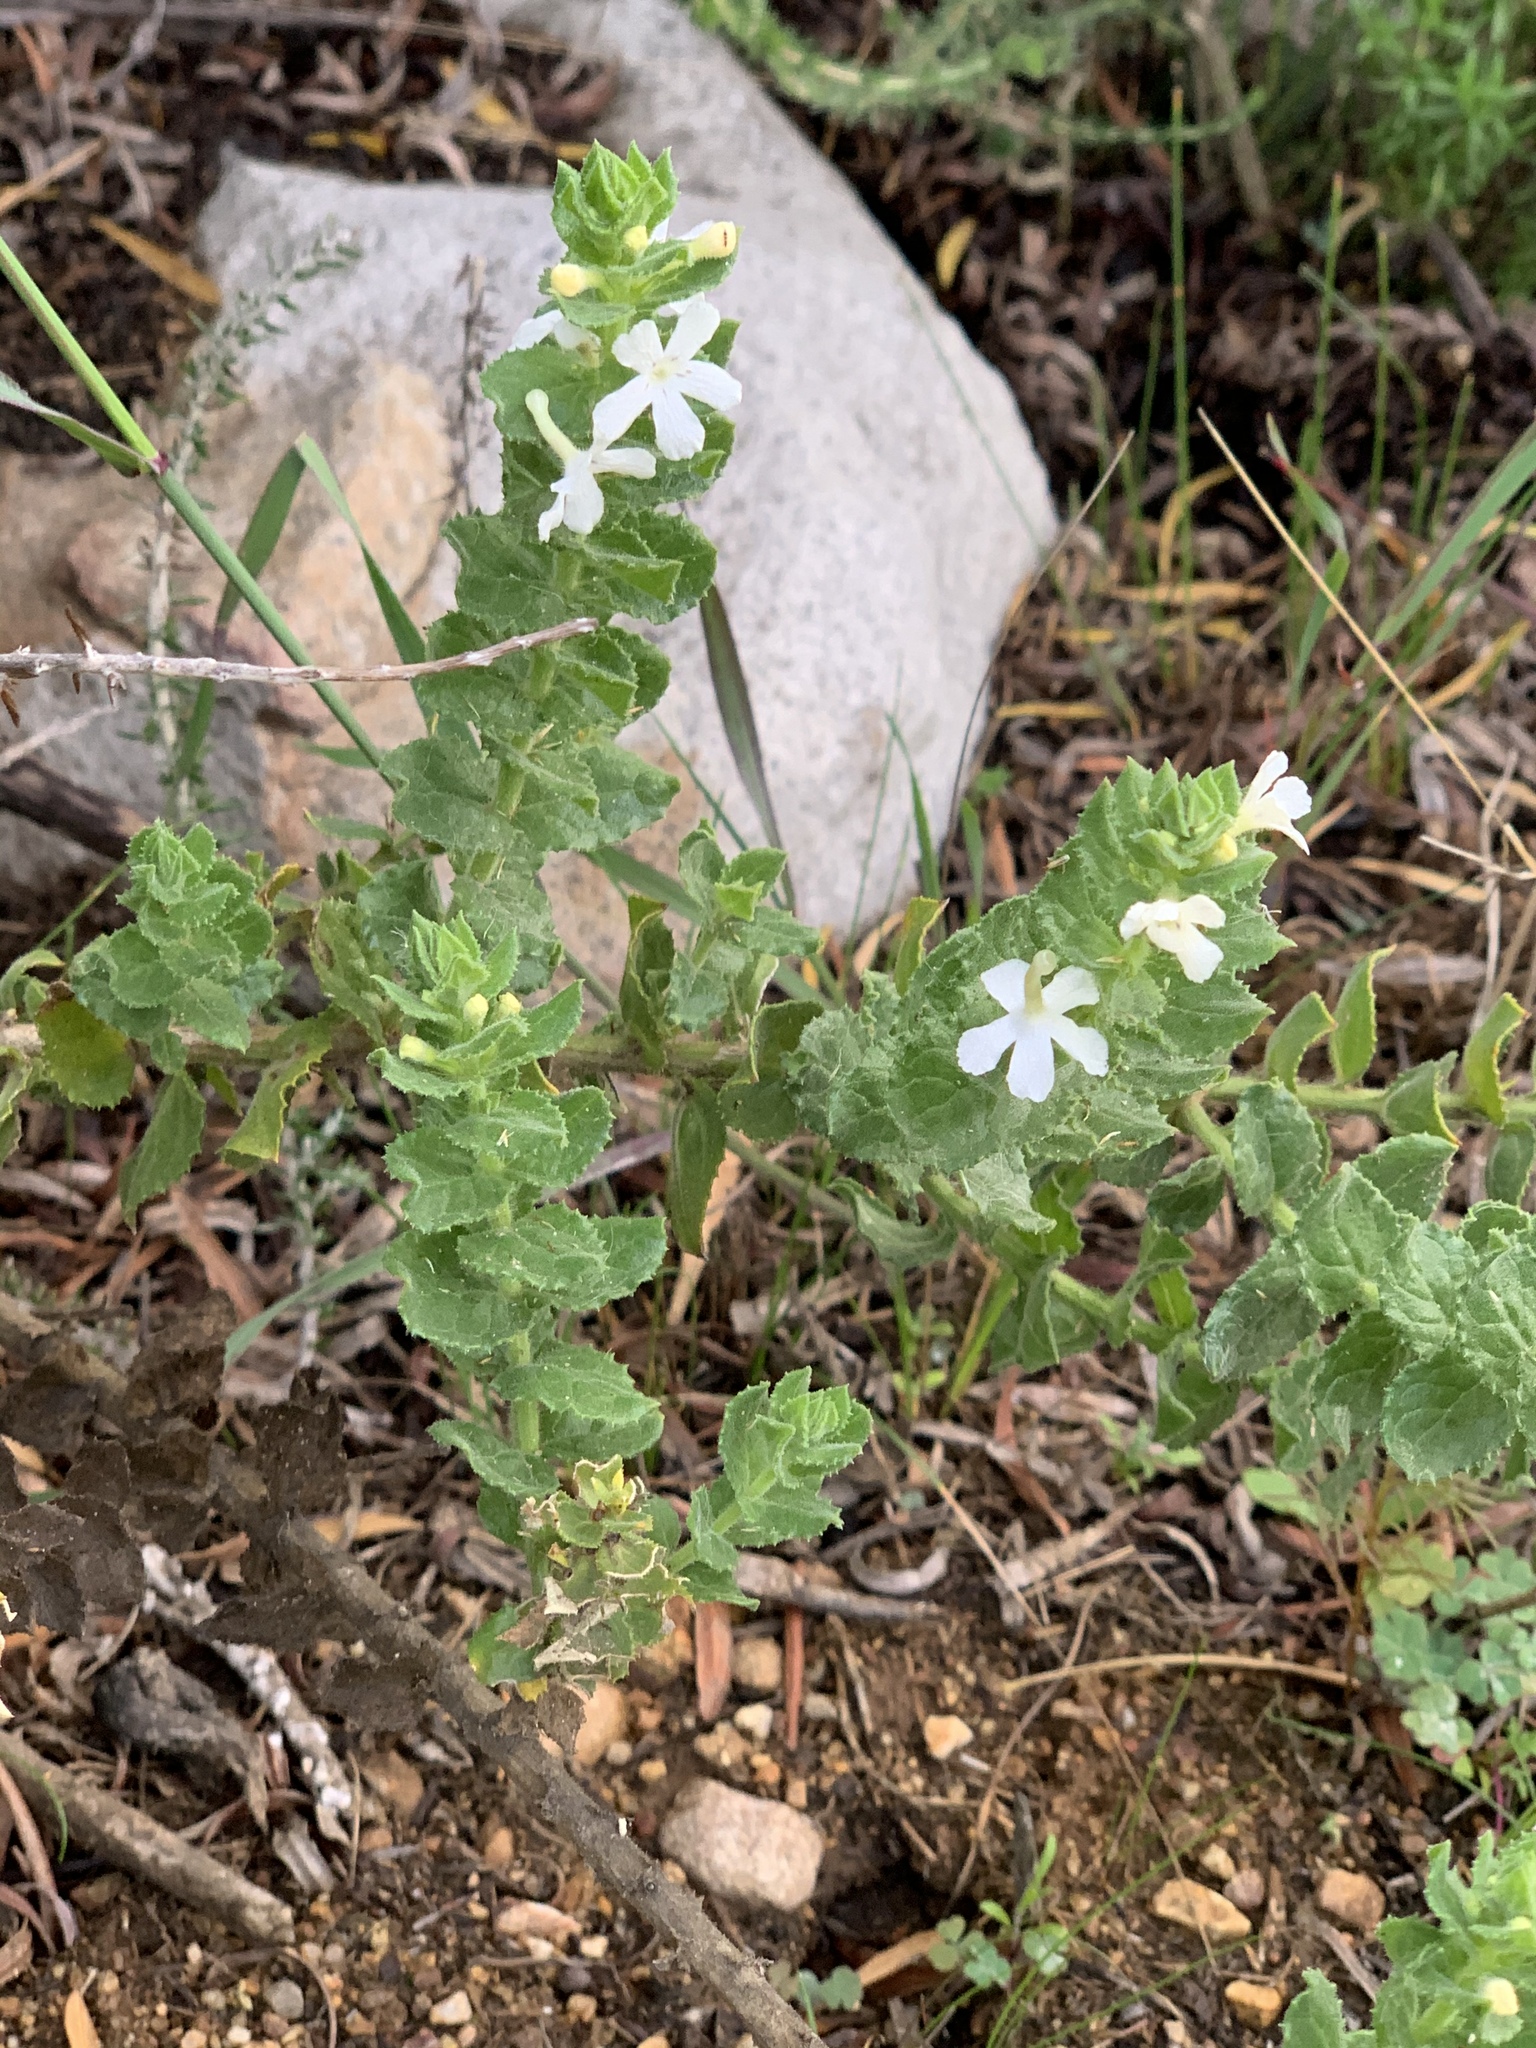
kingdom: Plantae
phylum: Tracheophyta
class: Magnoliopsida
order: Lamiales
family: Scrophulariaceae
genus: Oftia
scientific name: Oftia africana
